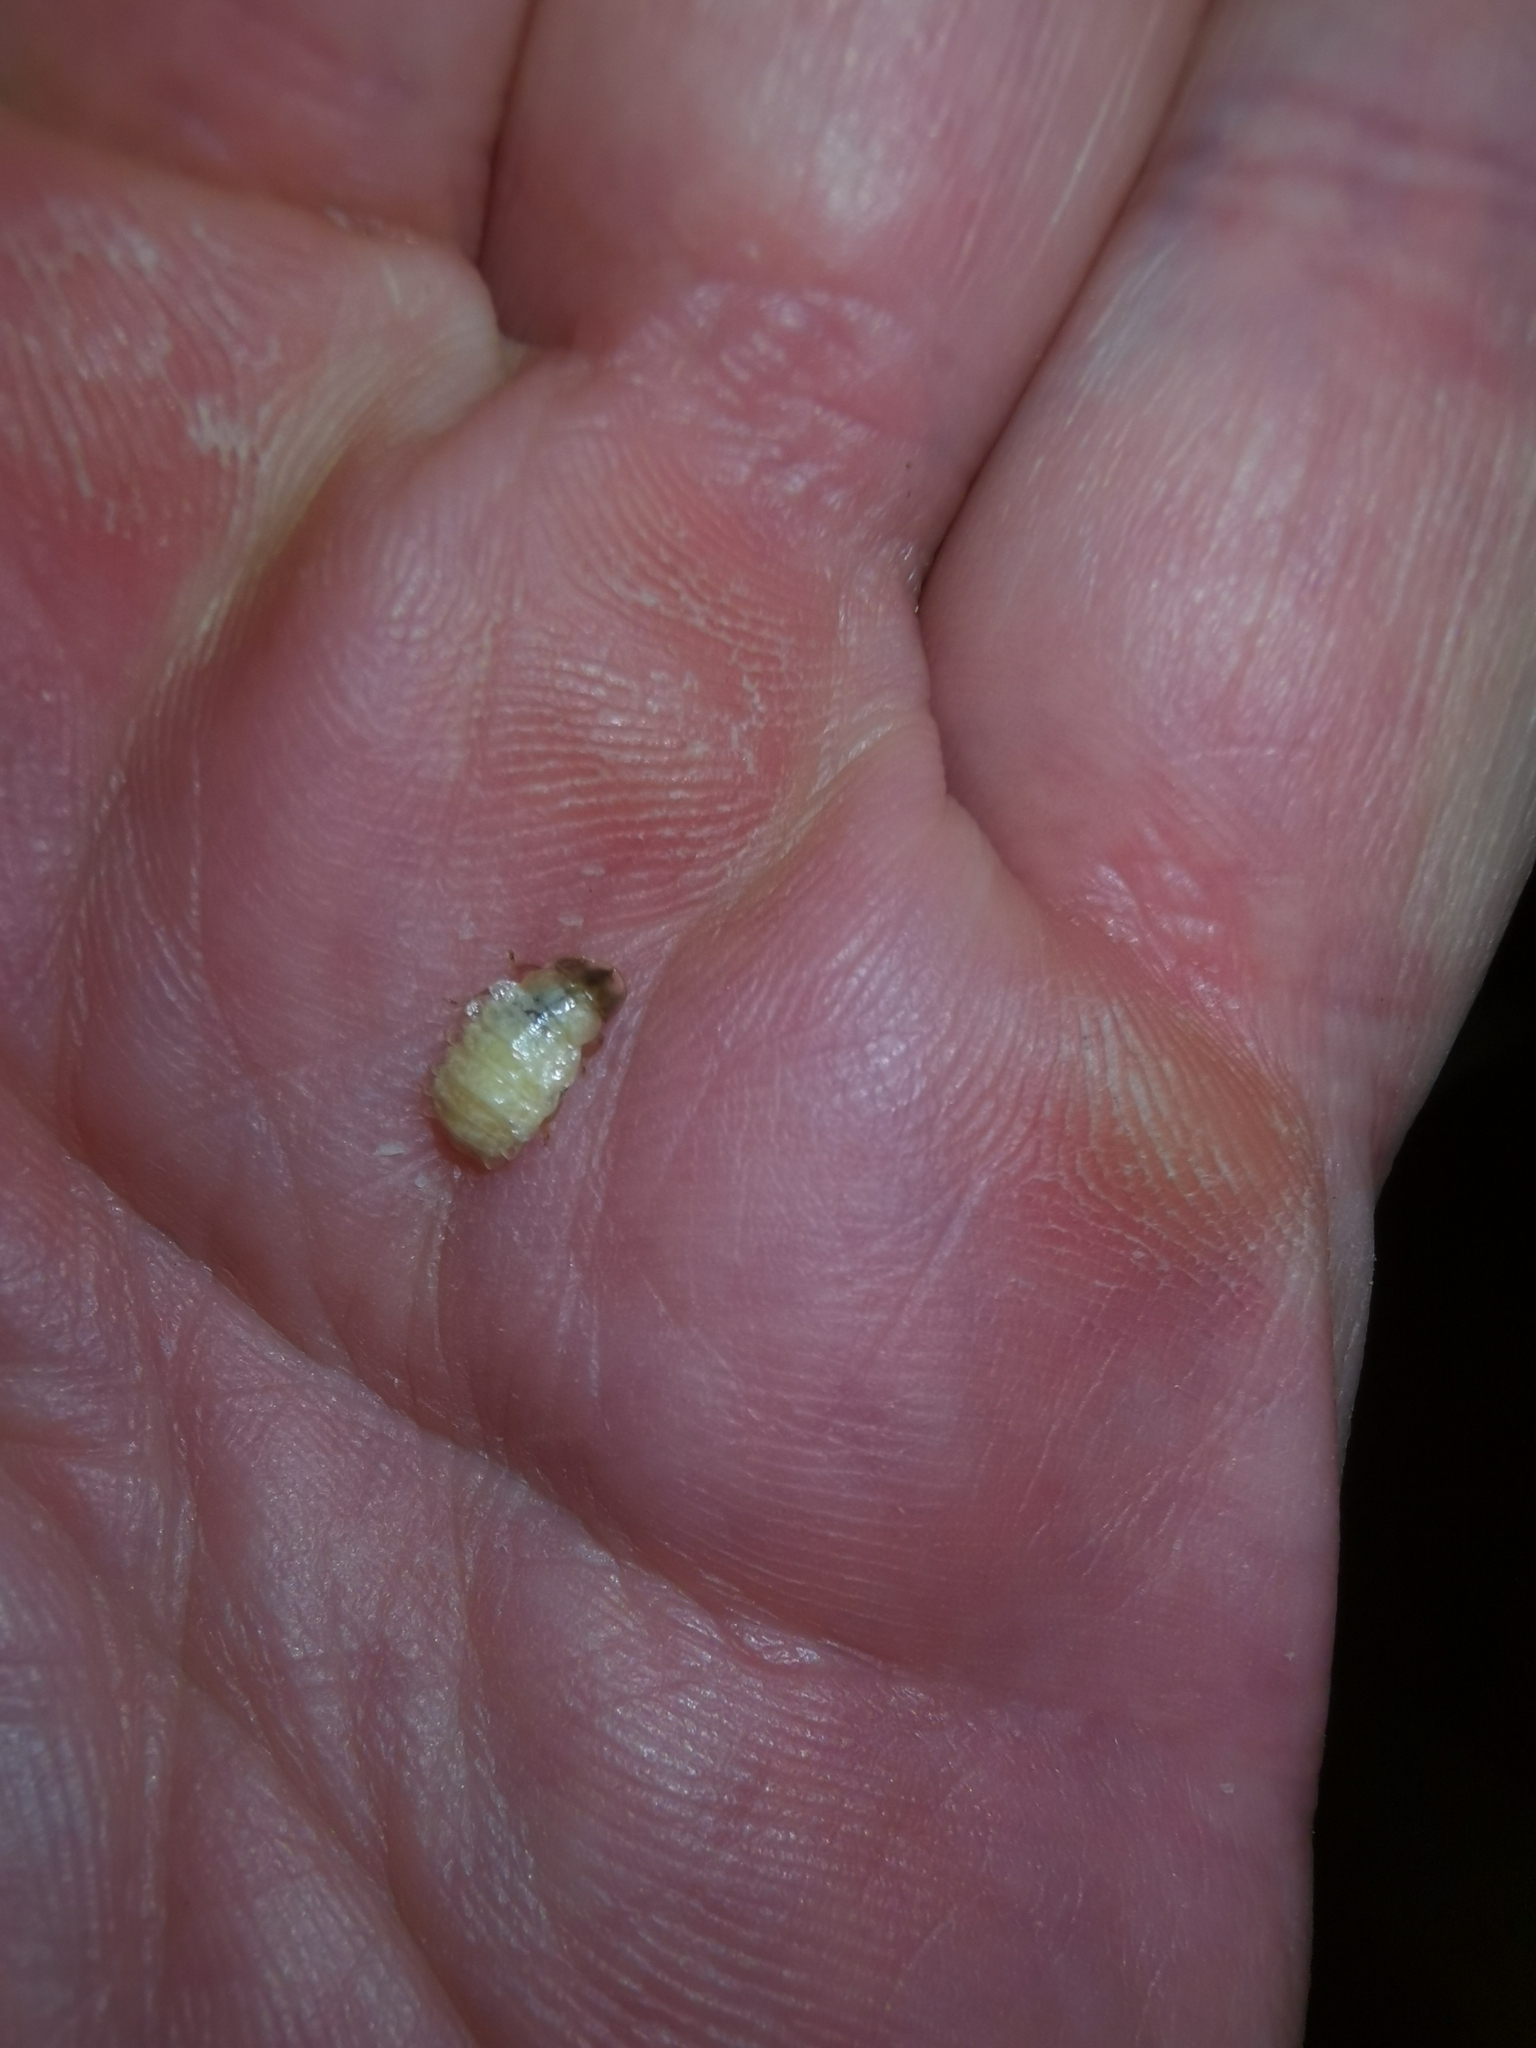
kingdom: Animalia
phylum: Arthropoda
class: Insecta
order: Coleoptera
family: Lampyridae
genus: Lamprohiza
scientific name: Lamprohiza splendidula
